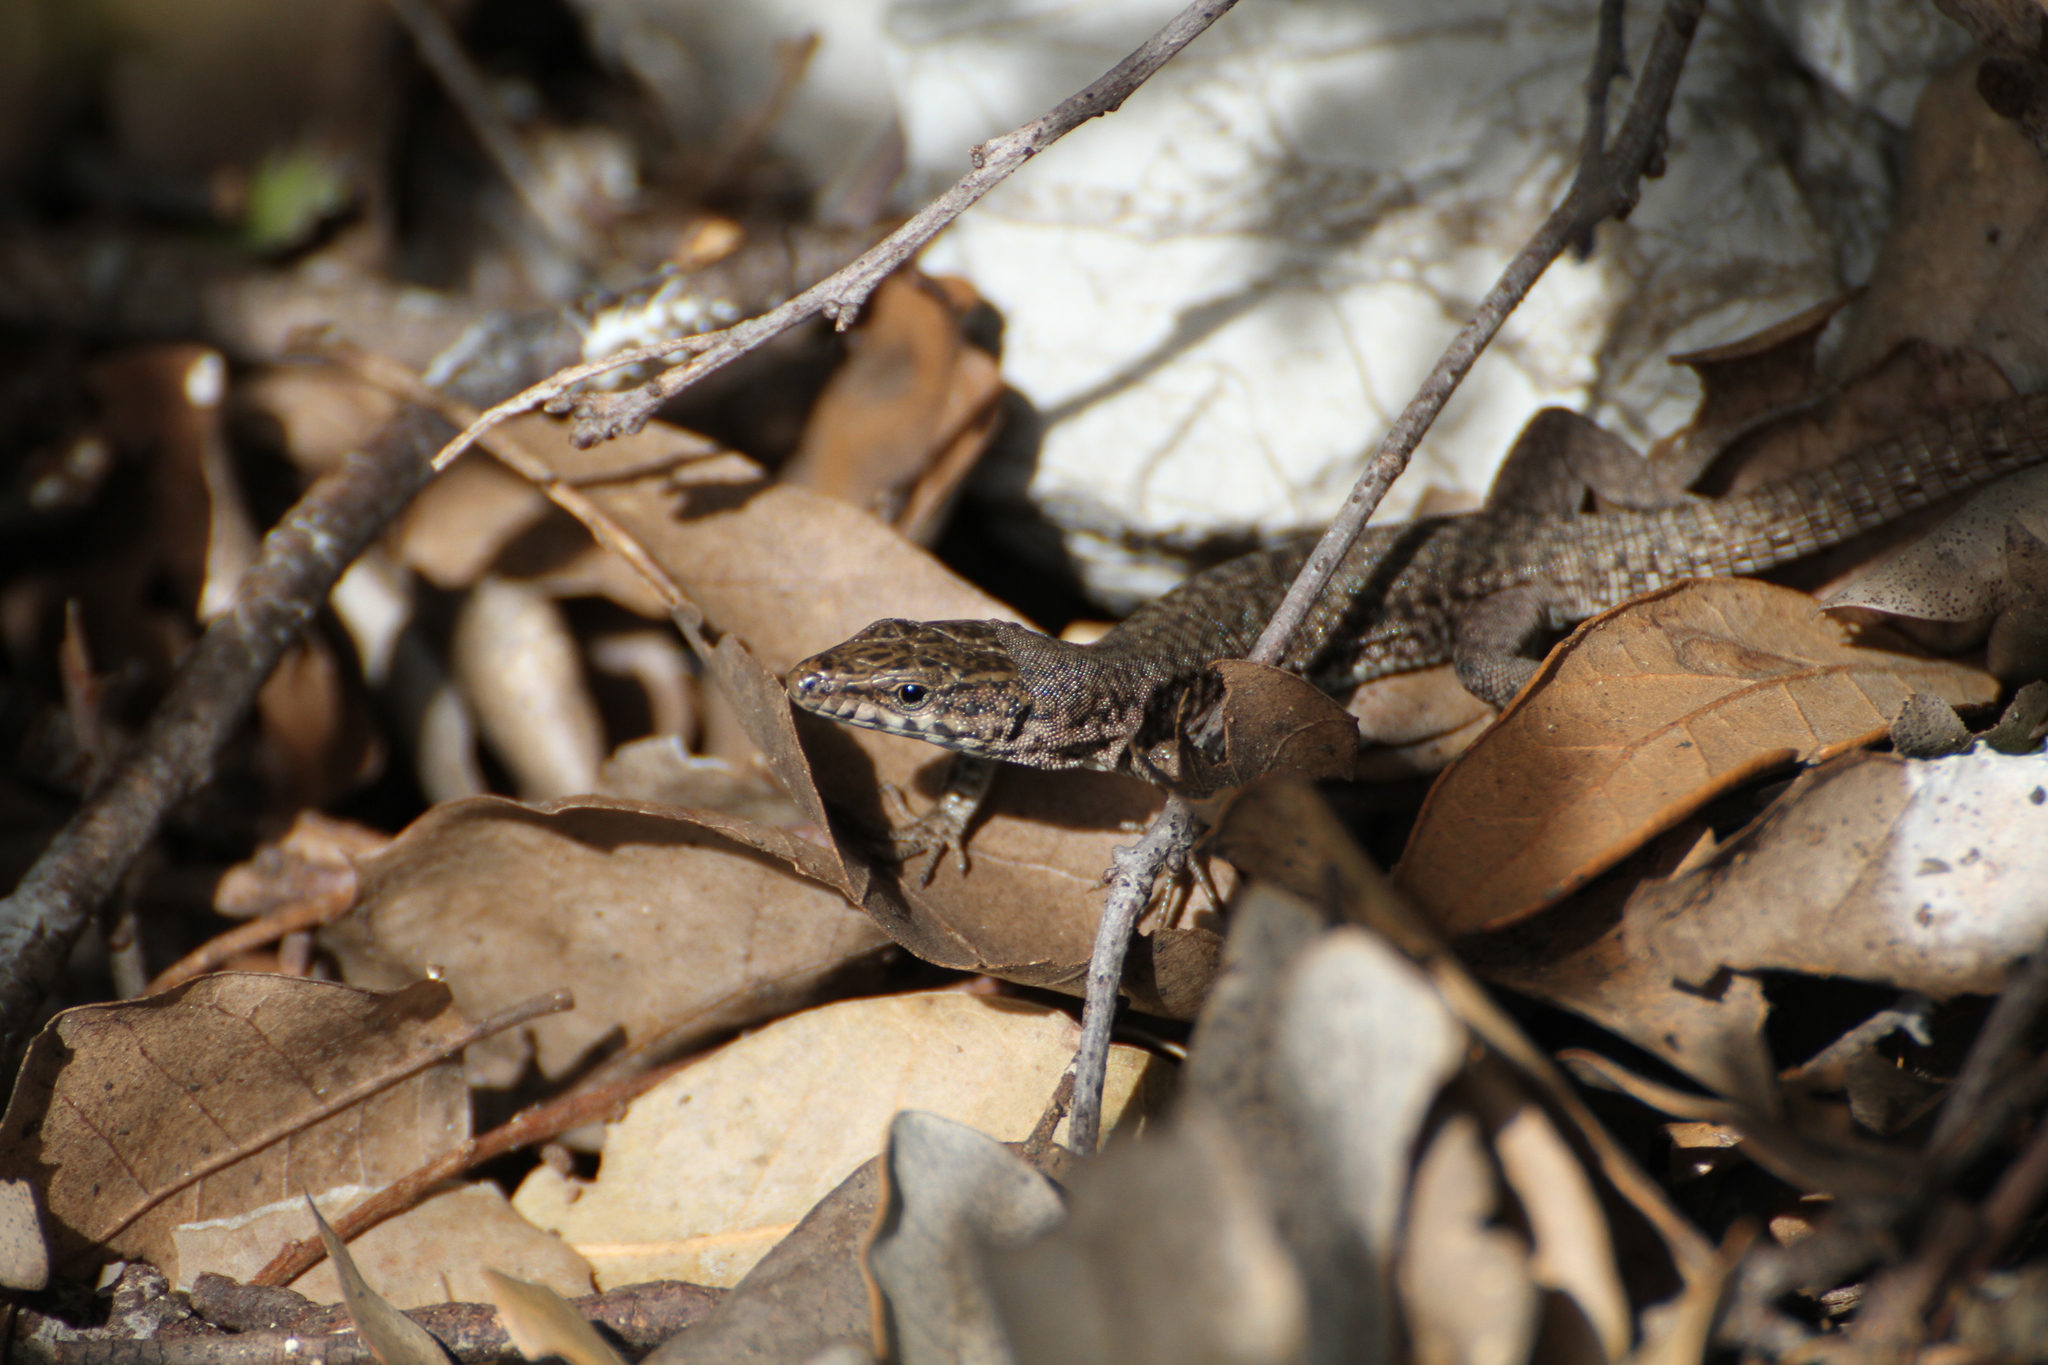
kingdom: Animalia
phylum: Chordata
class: Squamata
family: Lacertidae
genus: Podarcis
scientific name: Podarcis liolepis
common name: Catalonian wall lizard
